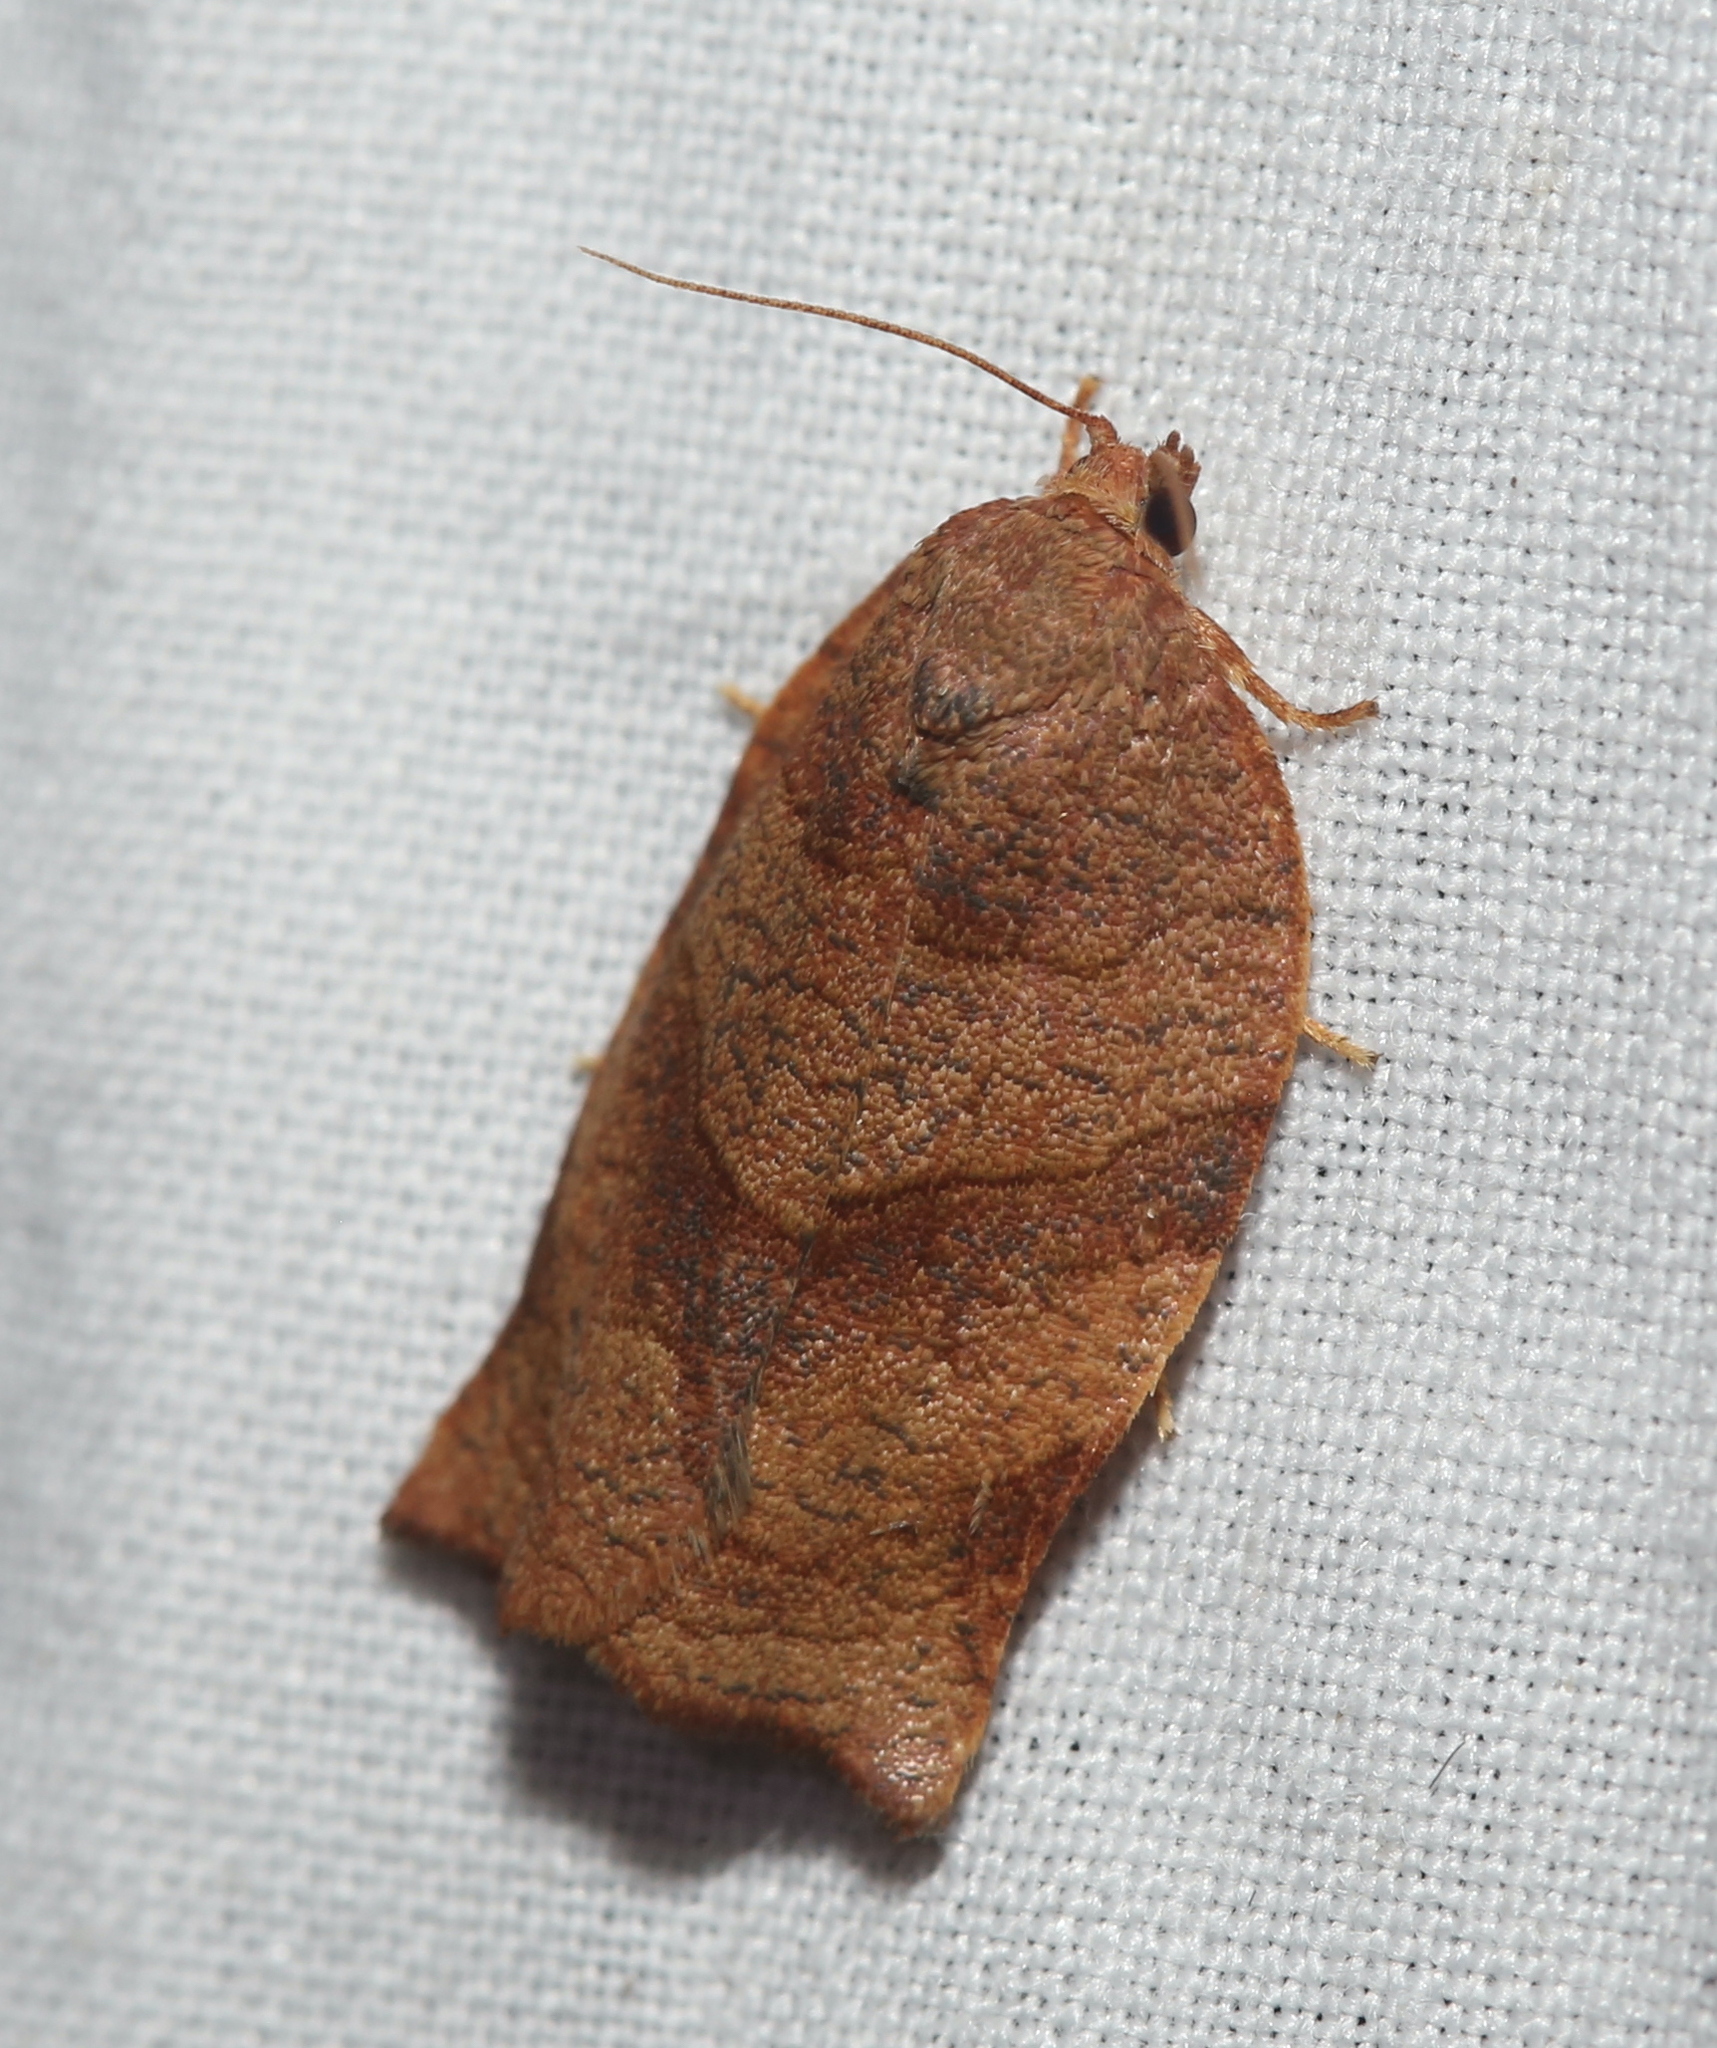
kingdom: Animalia
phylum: Arthropoda
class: Insecta
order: Lepidoptera
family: Tortricidae
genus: Choristoneura
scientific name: Choristoneura rosaceana
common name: Oblique-banded leafroller moth
